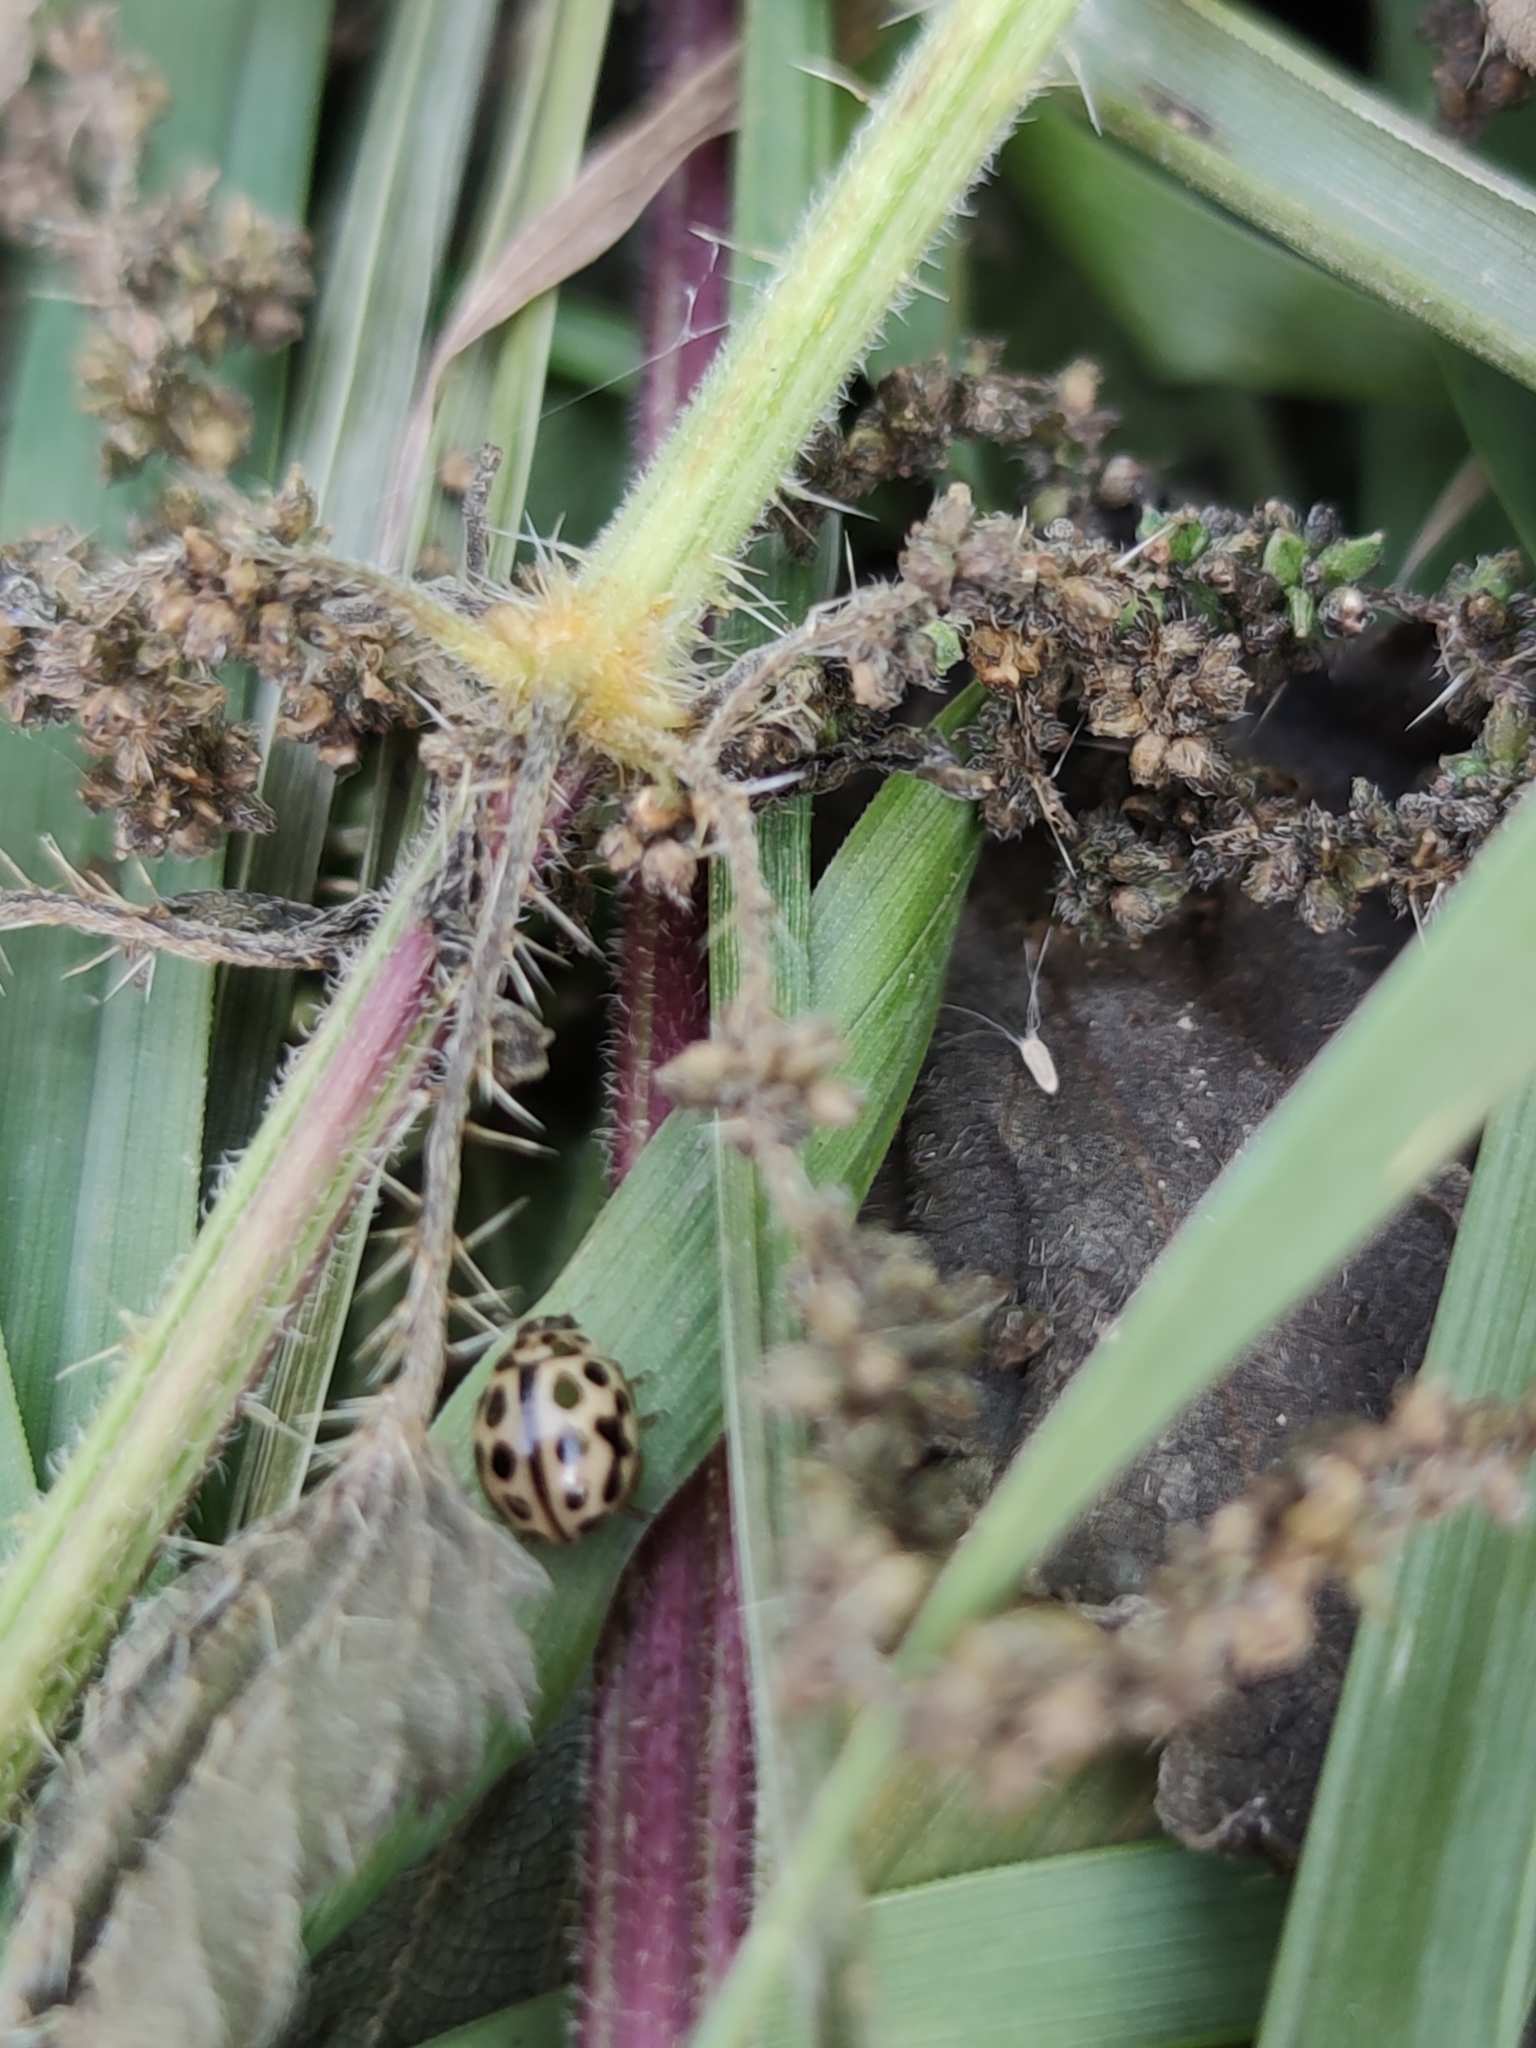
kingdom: Animalia
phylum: Arthropoda
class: Insecta
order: Coleoptera
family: Coccinellidae
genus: Tytthaspis
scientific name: Tytthaspis sedecimpunctata
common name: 16-spot ladybird
